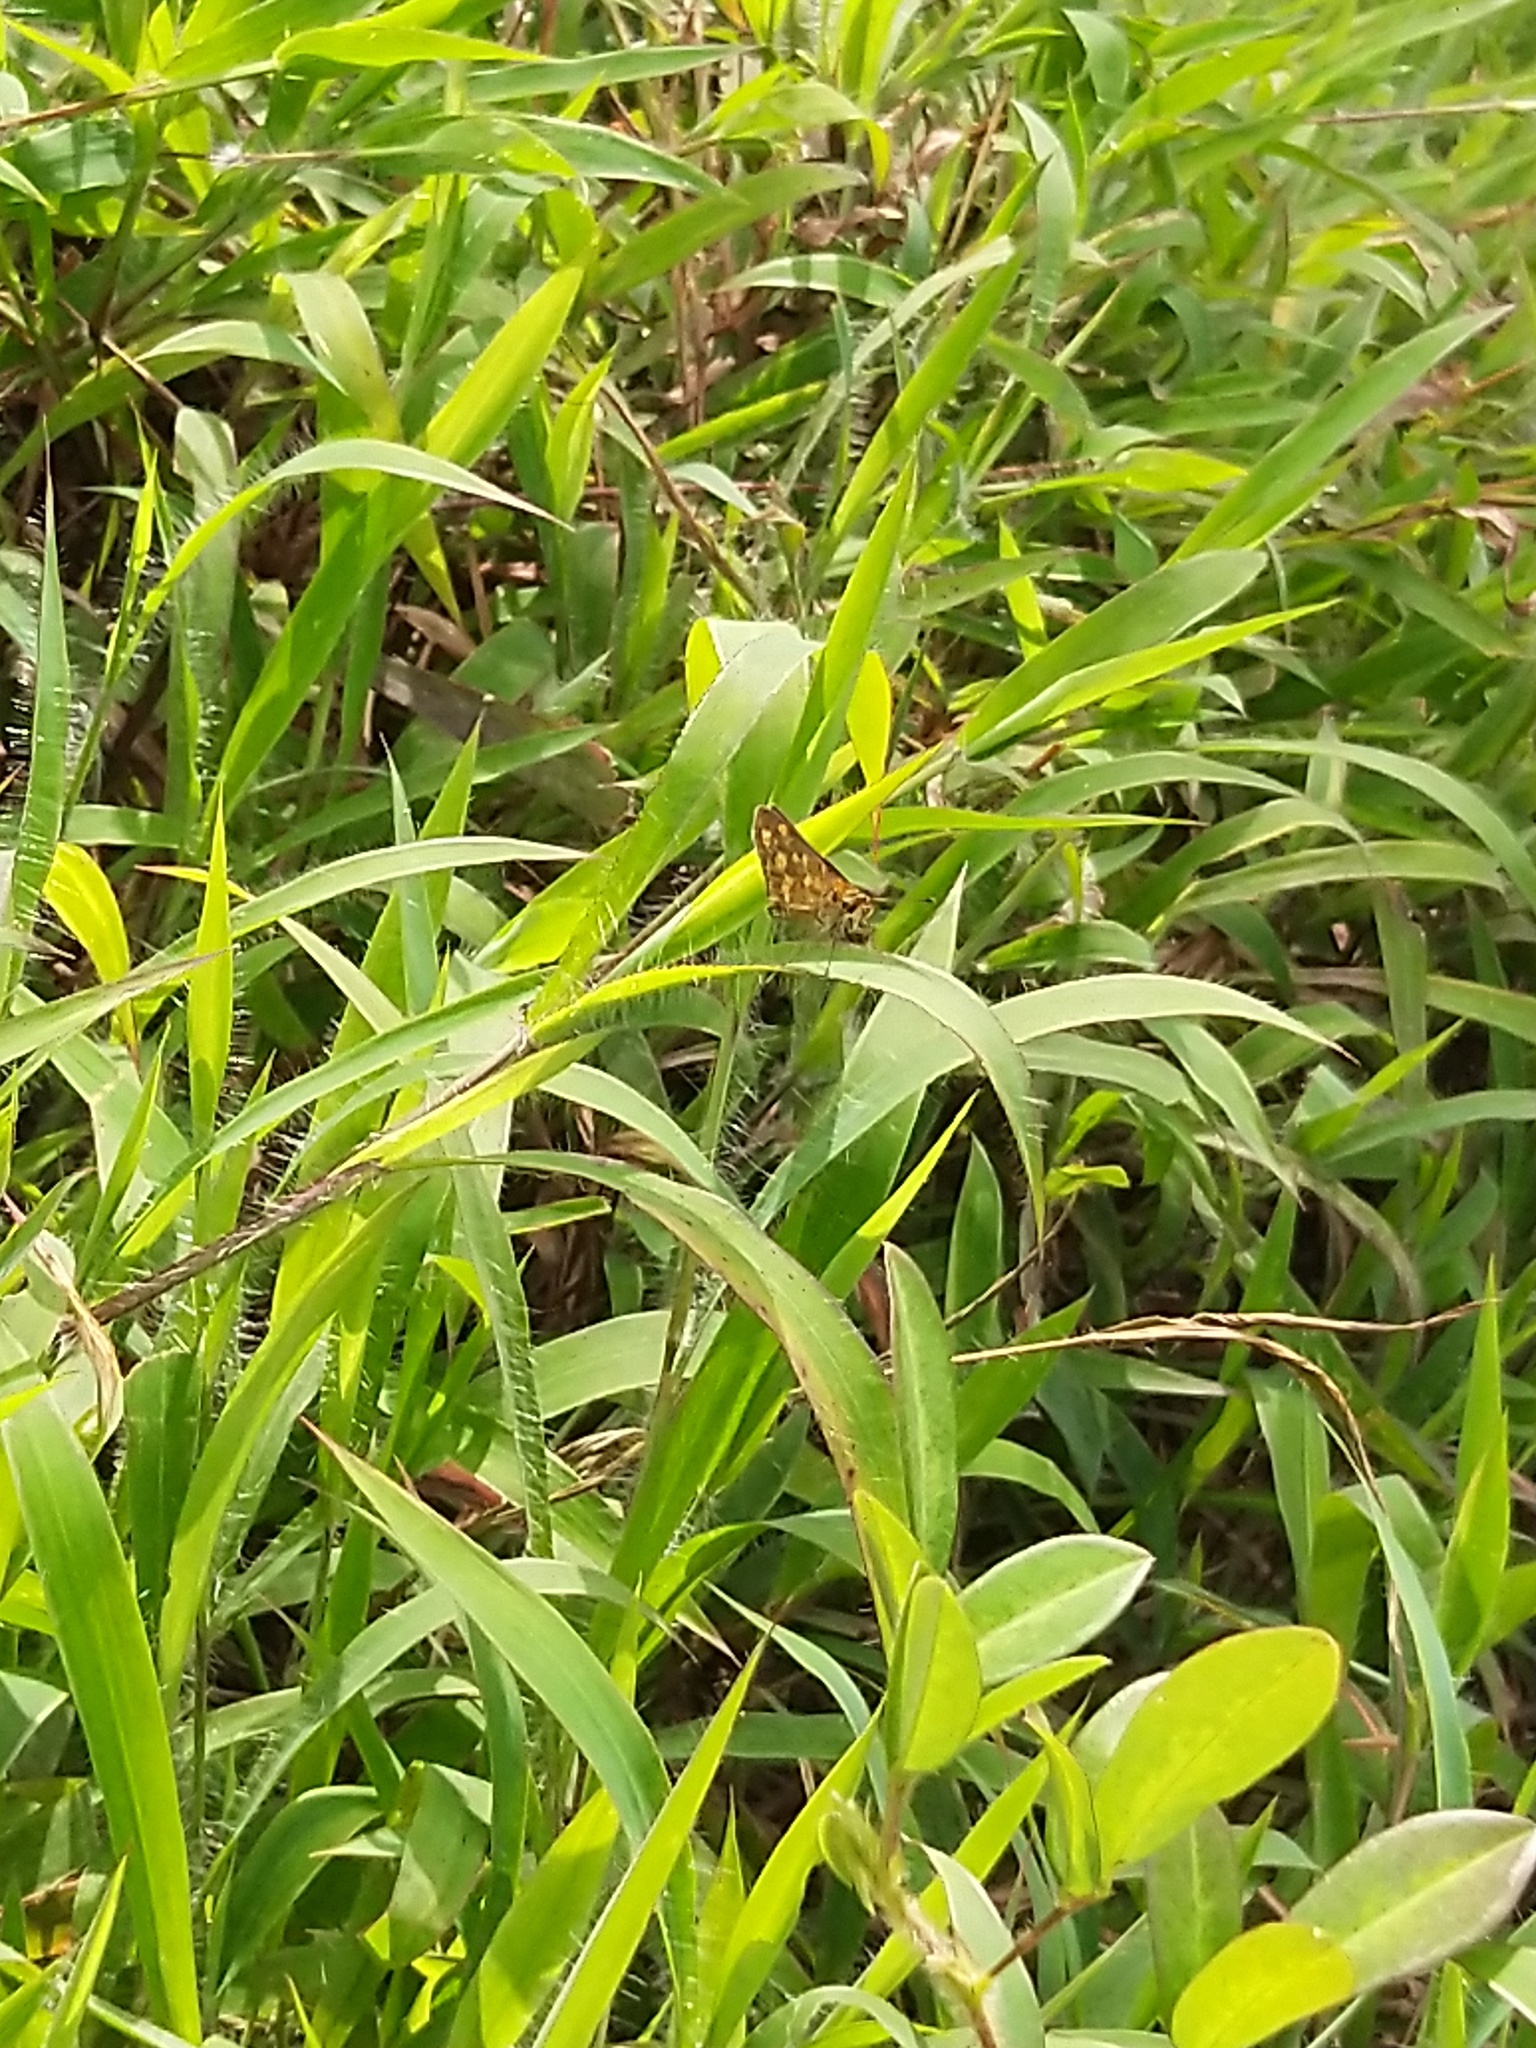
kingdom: Animalia
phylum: Arthropoda
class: Insecta
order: Lepidoptera
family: Hesperiidae
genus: Taractrocera
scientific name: Taractrocera ceramas
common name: Tamil grass dart
